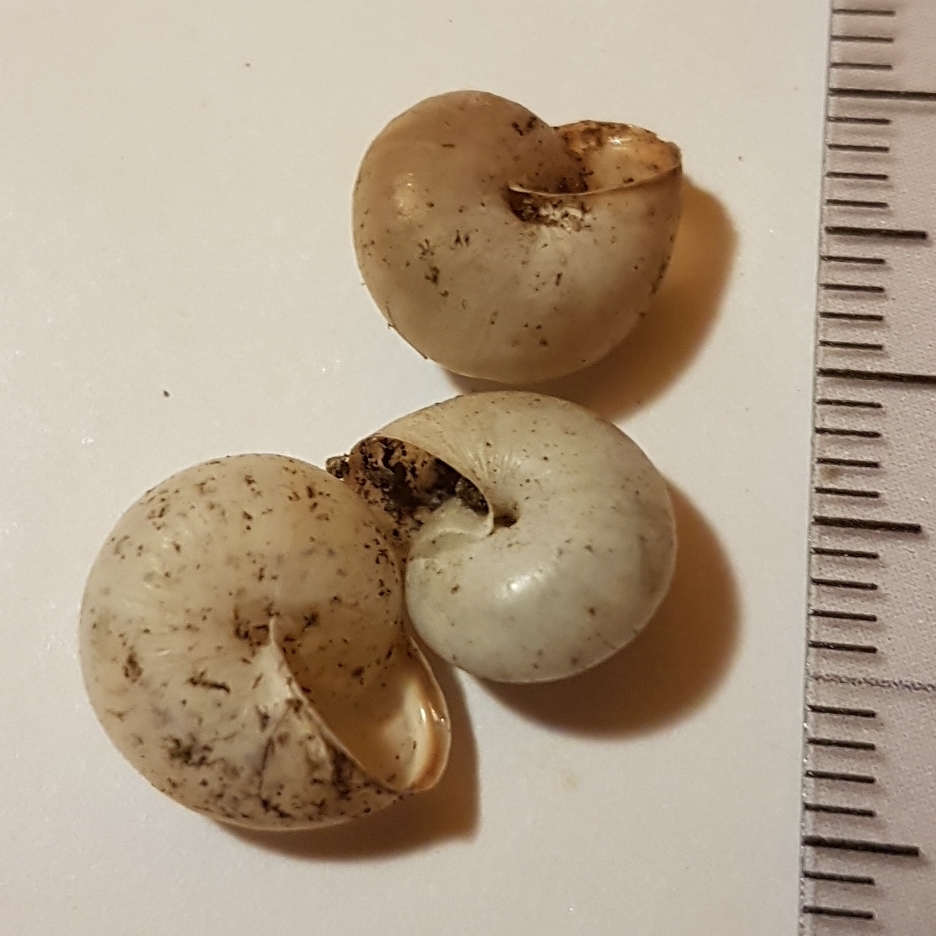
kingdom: Animalia
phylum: Mollusca
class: Gastropoda
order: Stylommatophora
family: Hygromiidae
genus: Monacha
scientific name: Monacha cartusiana
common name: Carthusian snail
